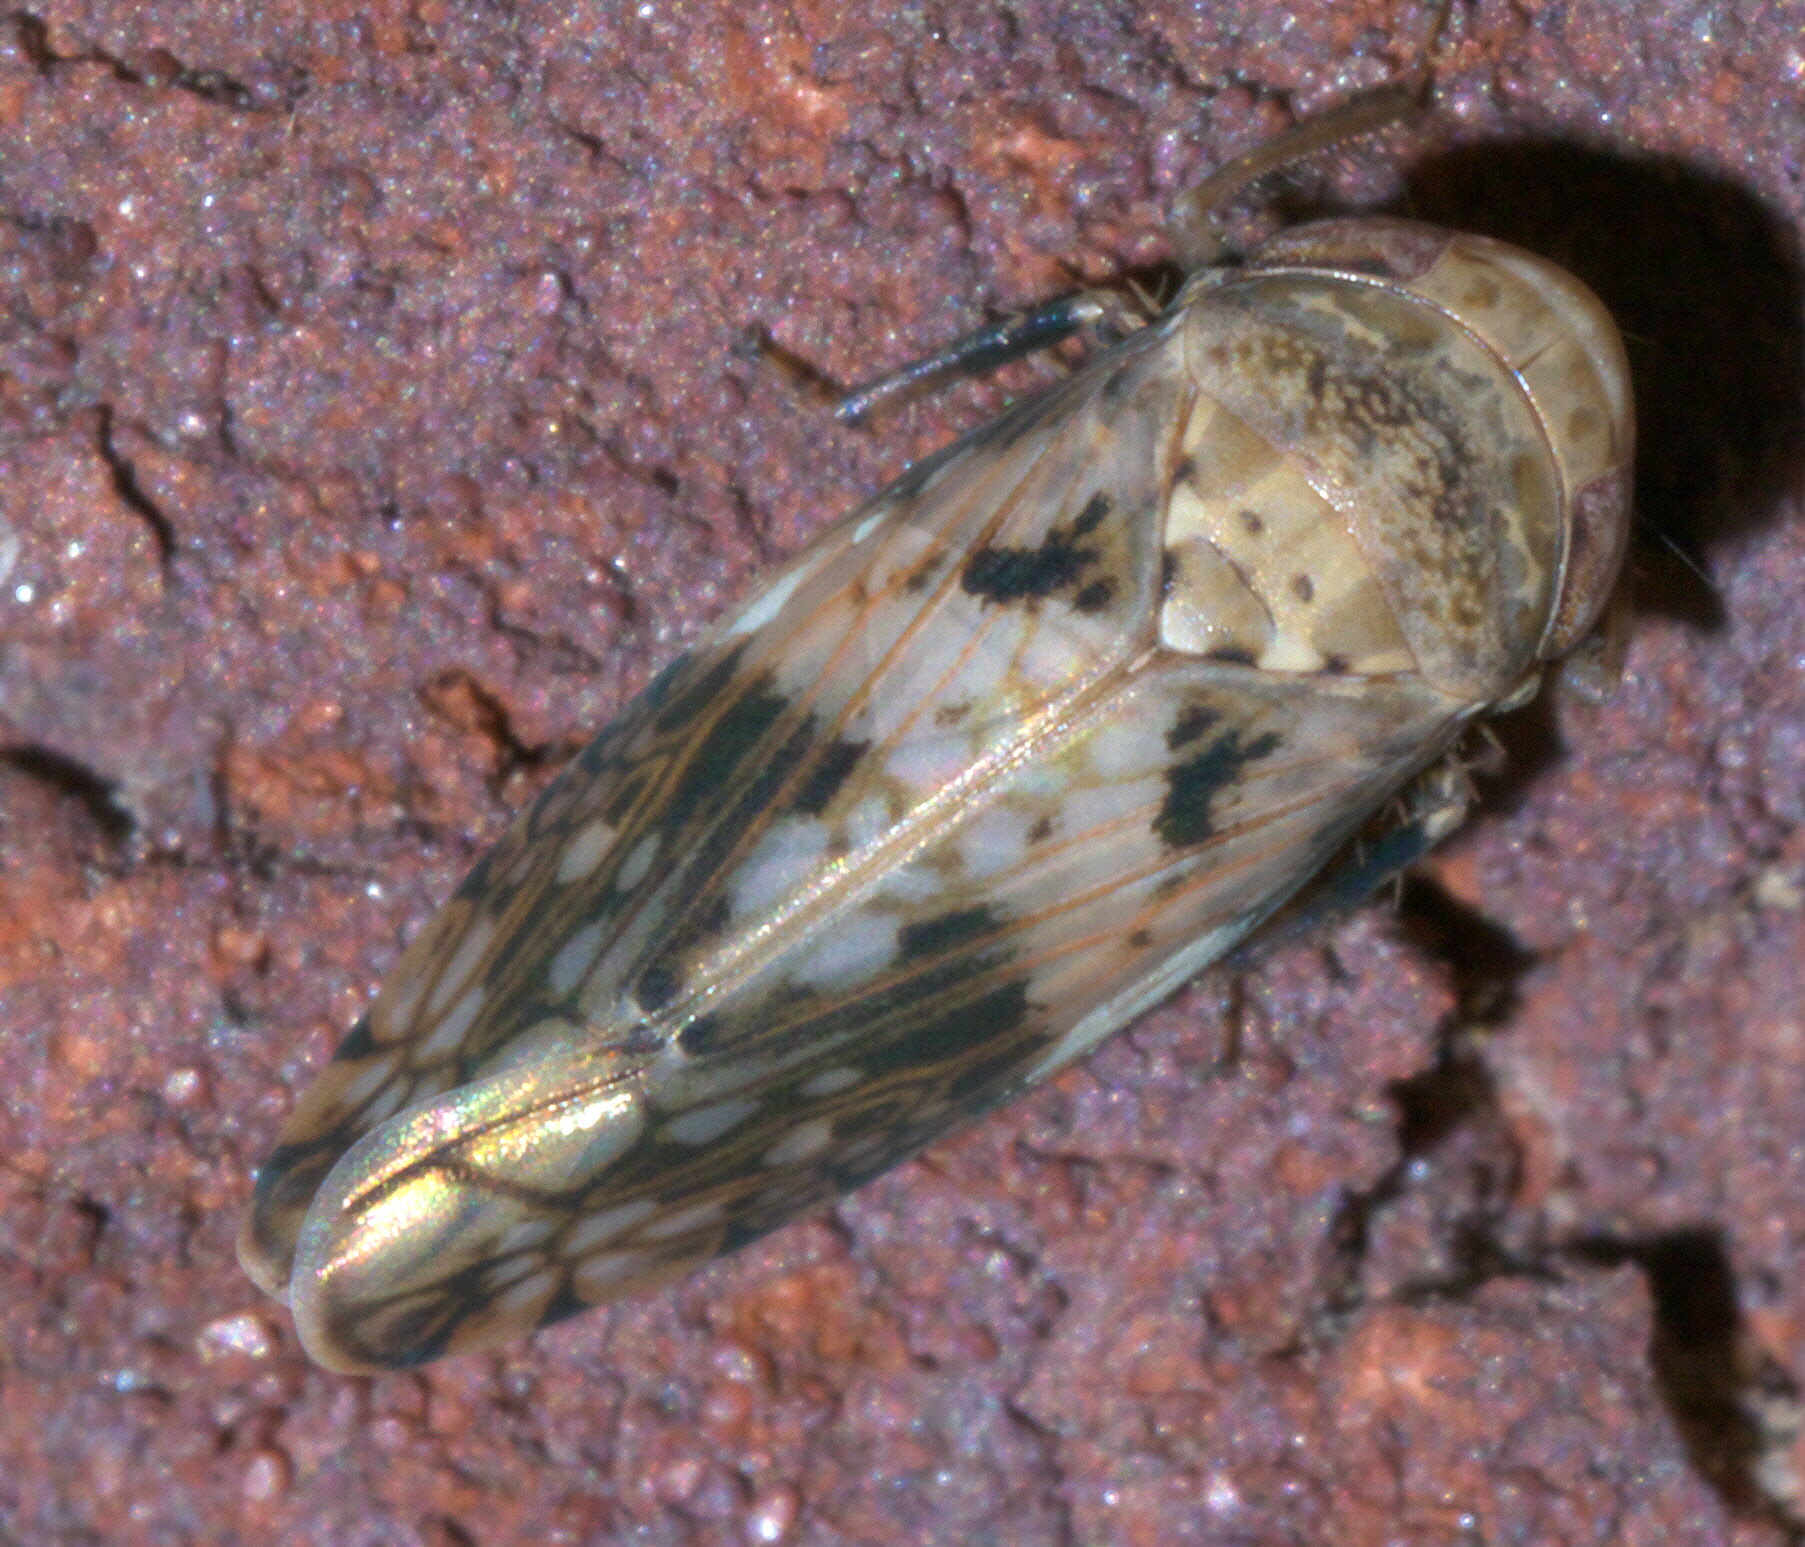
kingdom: Animalia
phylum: Arthropoda
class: Insecta
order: Hemiptera
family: Cicadellidae
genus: Menosoma
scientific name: Menosoma cinctum
